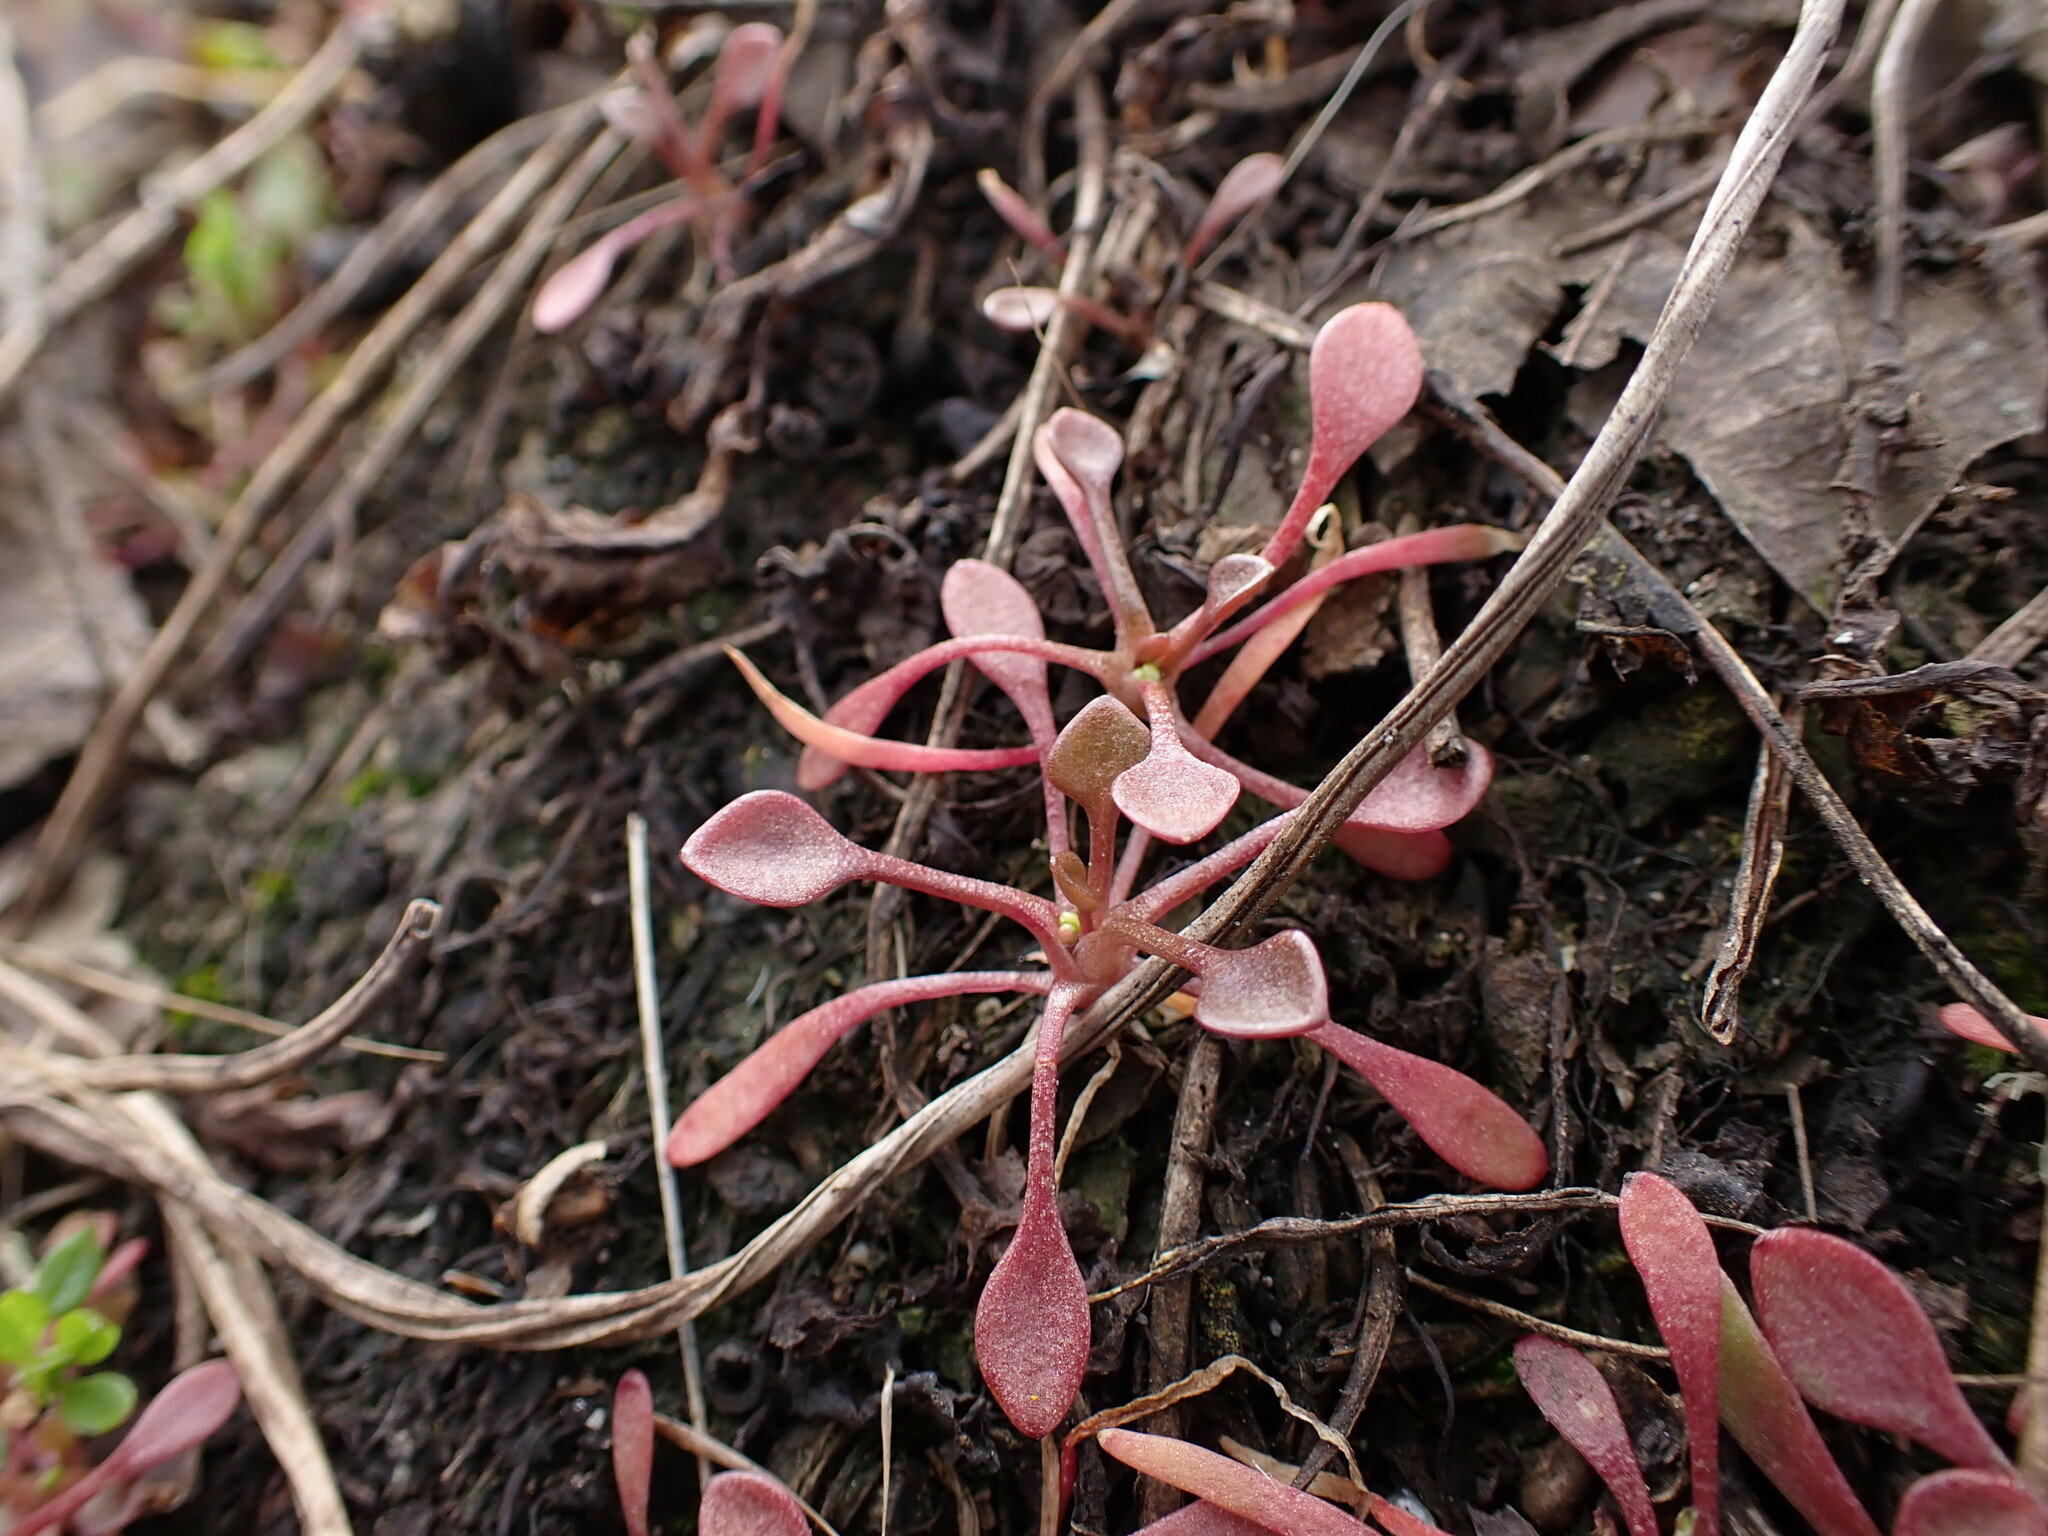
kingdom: Plantae
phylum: Tracheophyta
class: Magnoliopsida
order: Caryophyllales
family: Montiaceae
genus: Claytonia
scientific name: Claytonia rubra
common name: Erubescent miner's-lettuce
